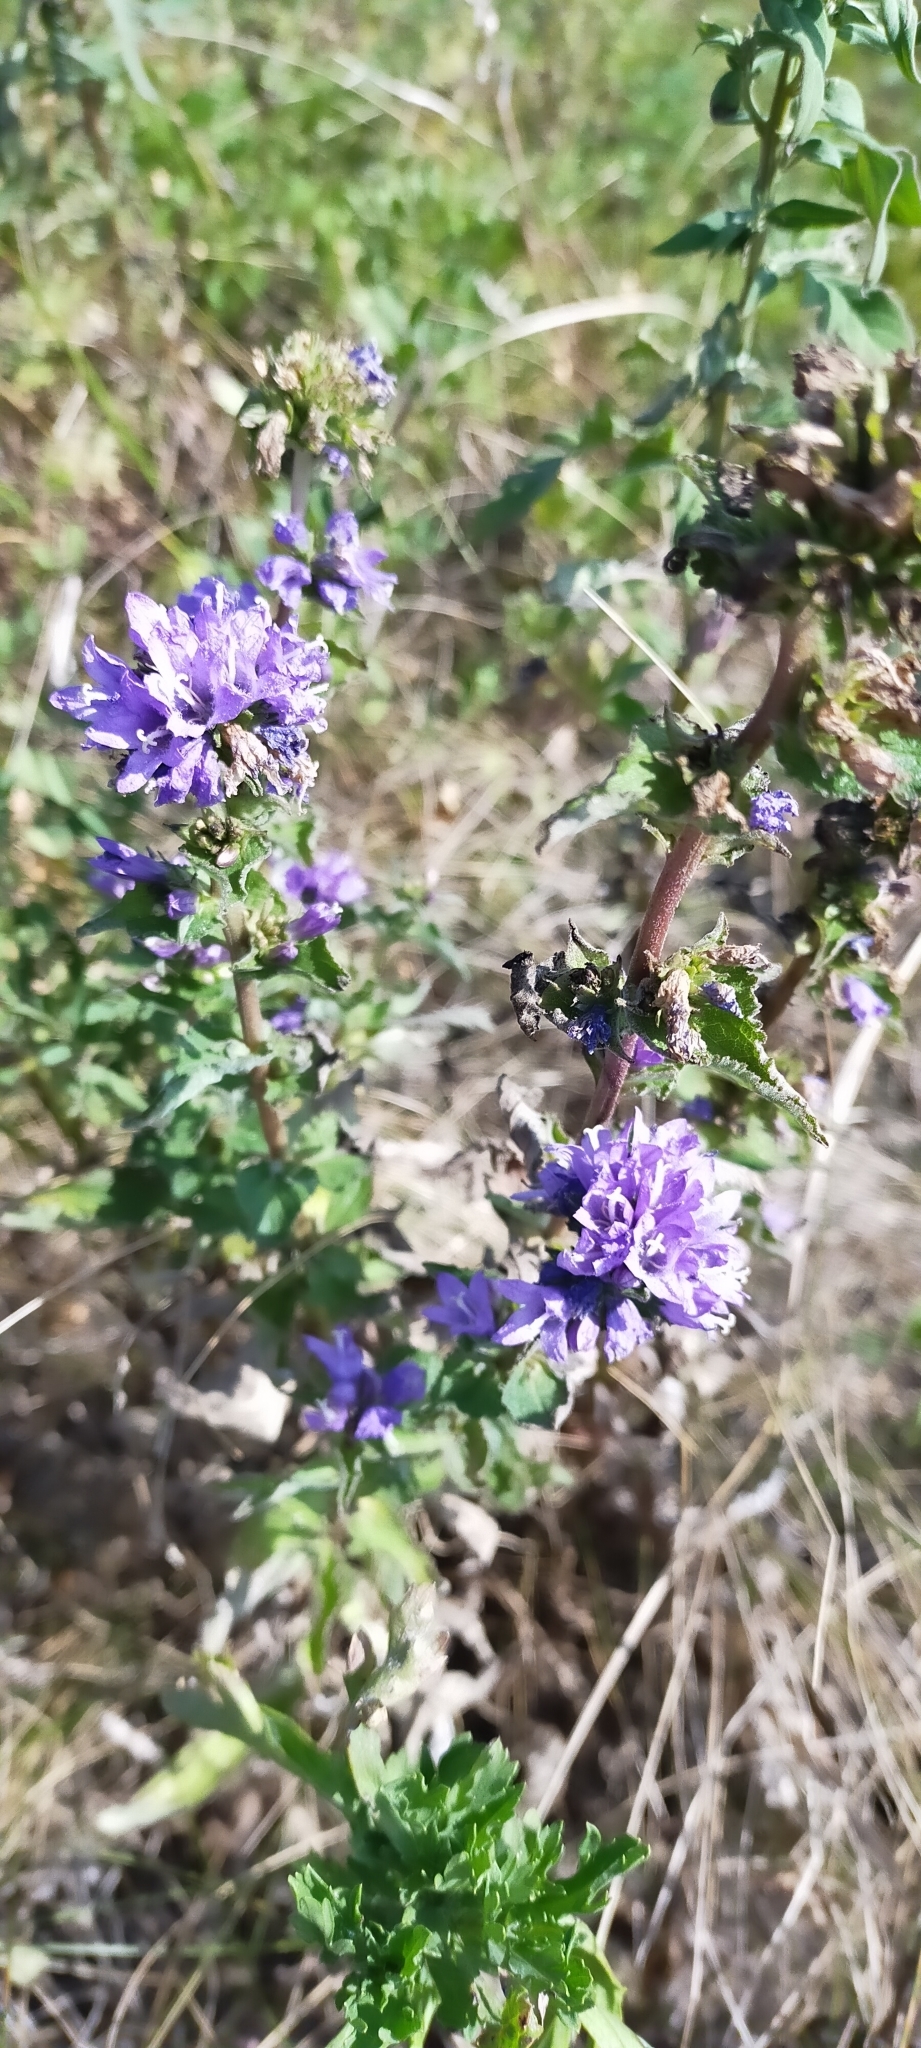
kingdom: Plantae
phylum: Tracheophyta
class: Magnoliopsida
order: Asterales
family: Campanulaceae
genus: Campanula
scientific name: Campanula glomerata
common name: Clustered bellflower
